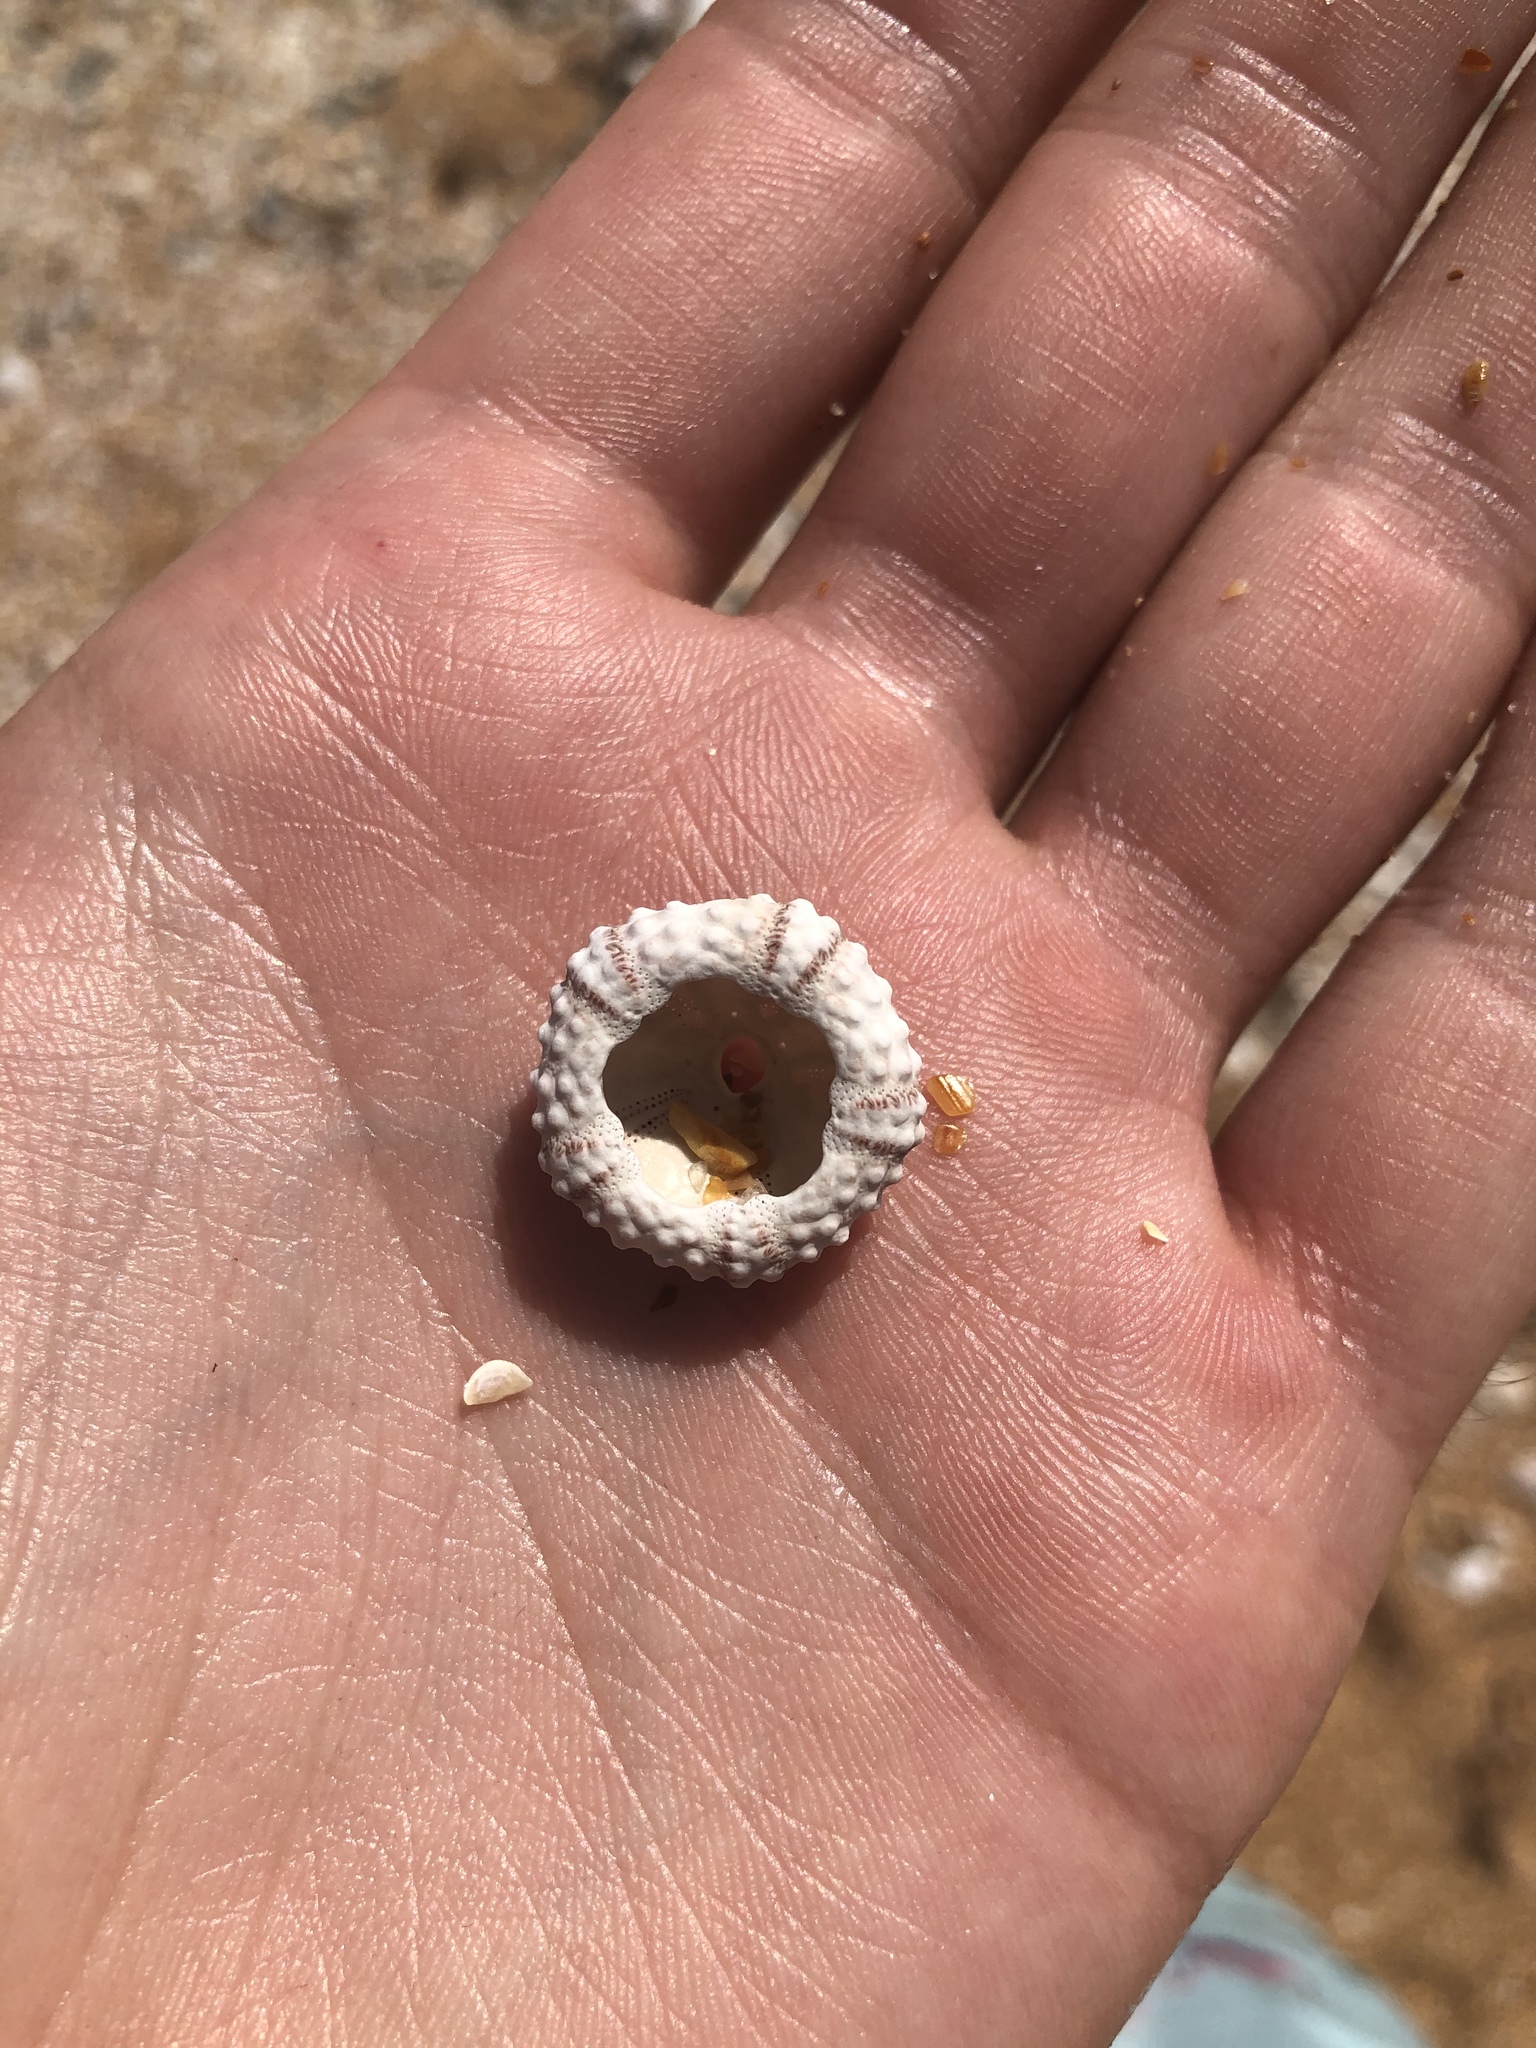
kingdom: Animalia
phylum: Echinodermata
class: Echinoidea
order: Arbacioida
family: Arbaciidae
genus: Arbacia
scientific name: Arbacia punctulata
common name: Purple-spined sea urchin
